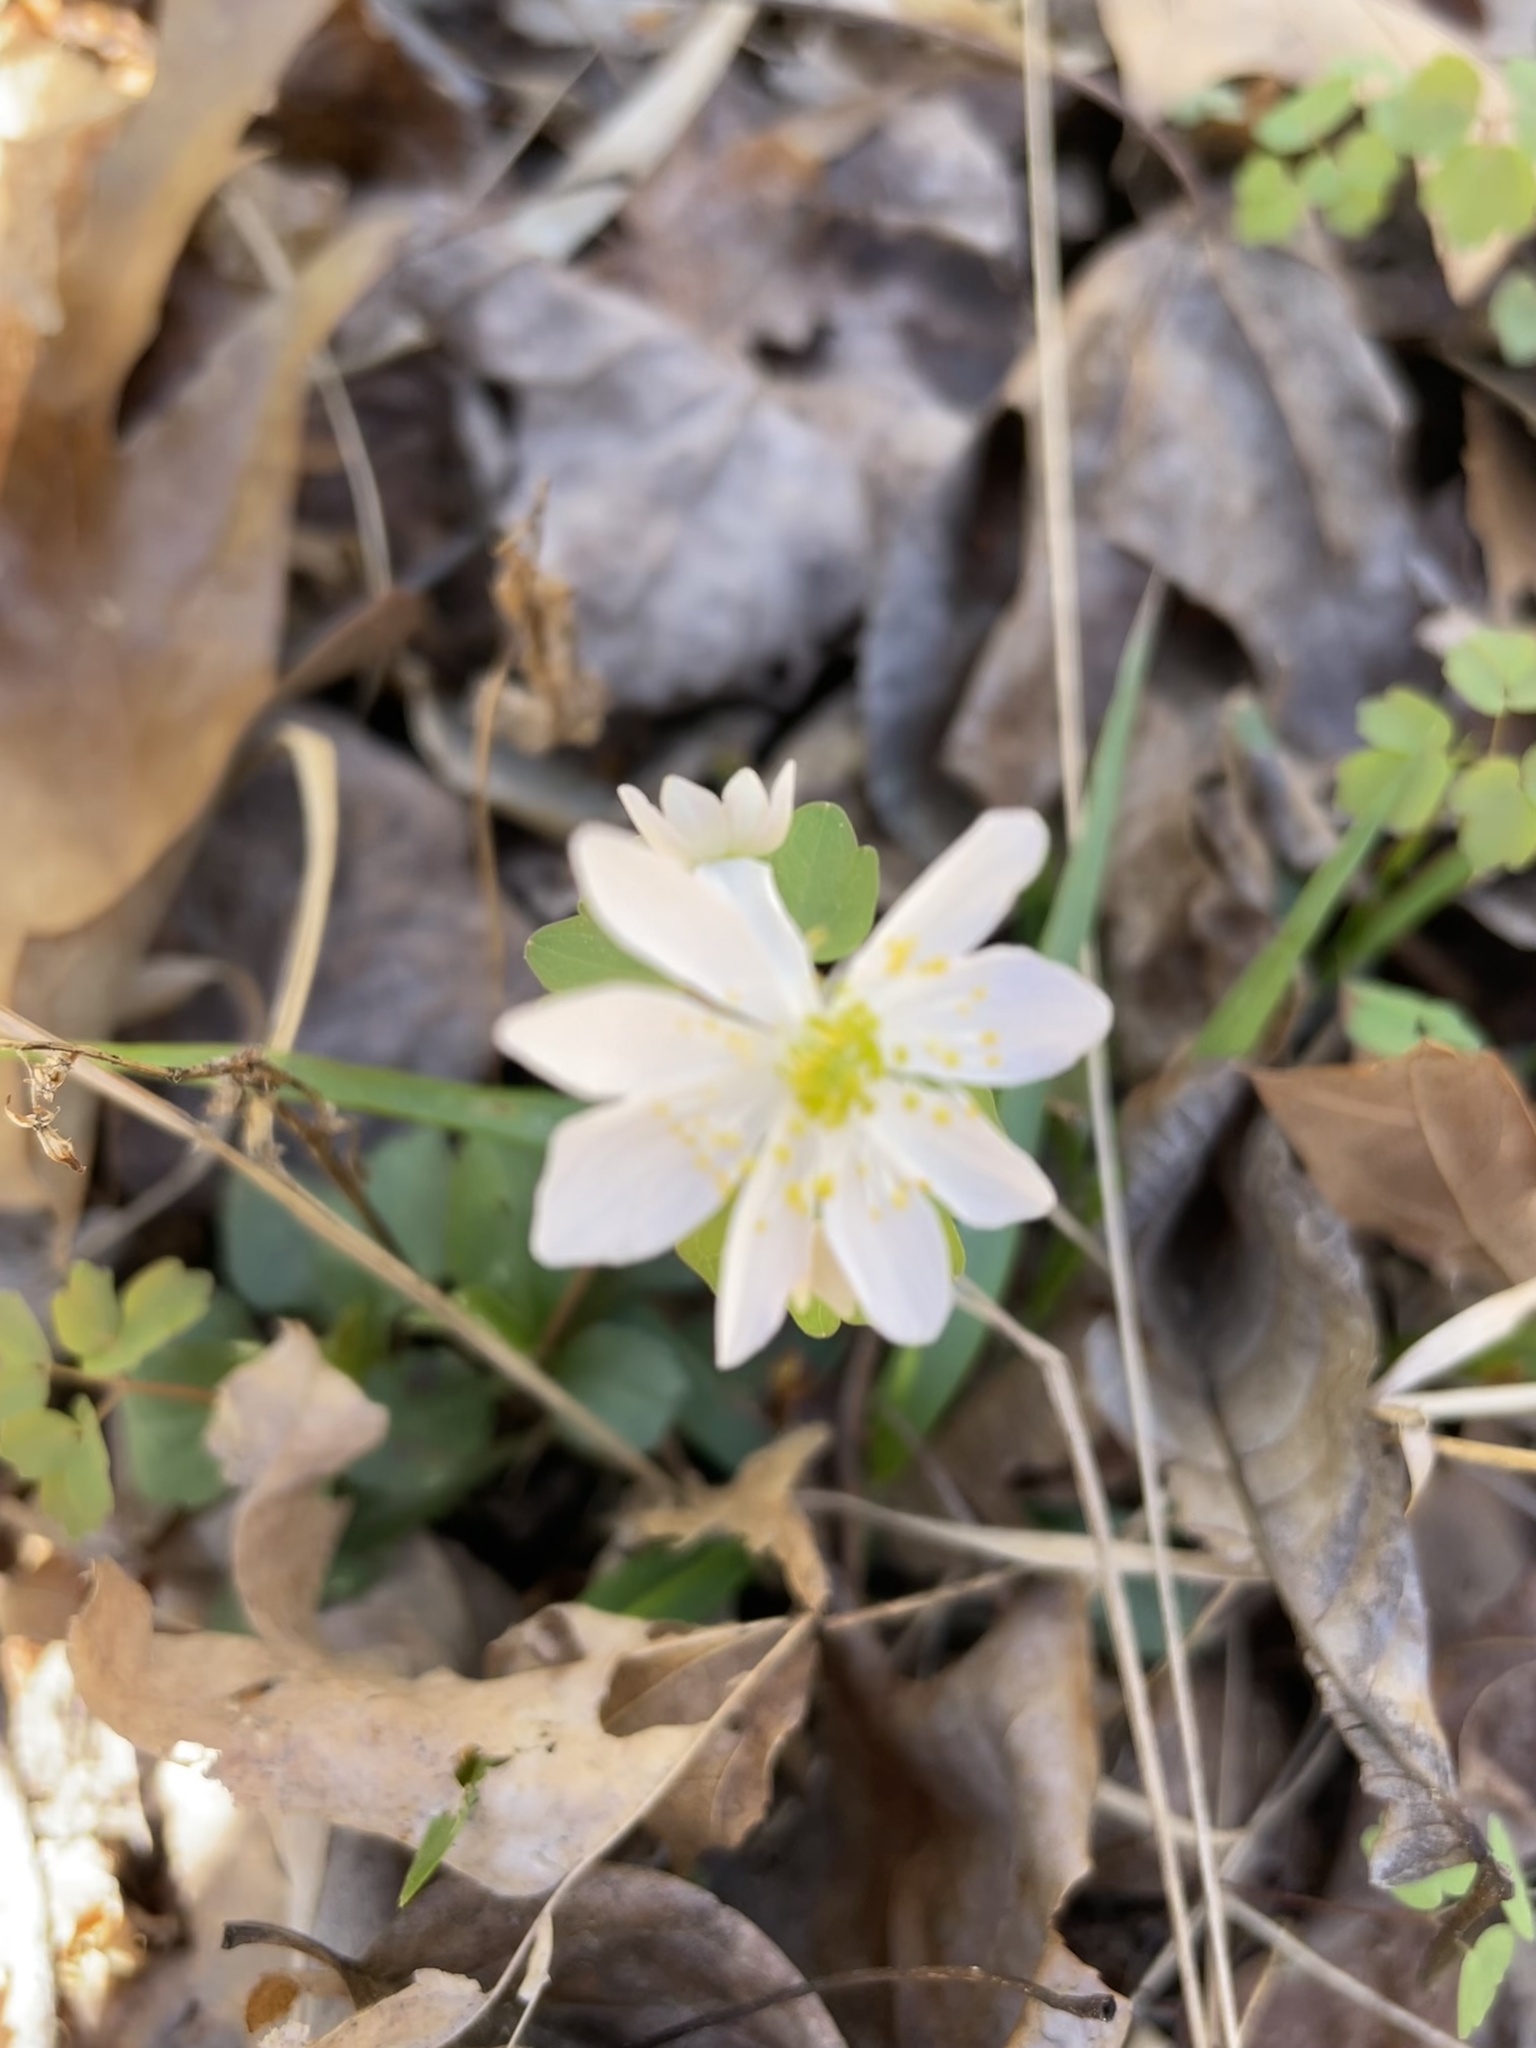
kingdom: Plantae
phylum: Tracheophyta
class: Magnoliopsida
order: Ranunculales
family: Ranunculaceae
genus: Thalictrum
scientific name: Thalictrum thalictroides
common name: Rue-anemone
